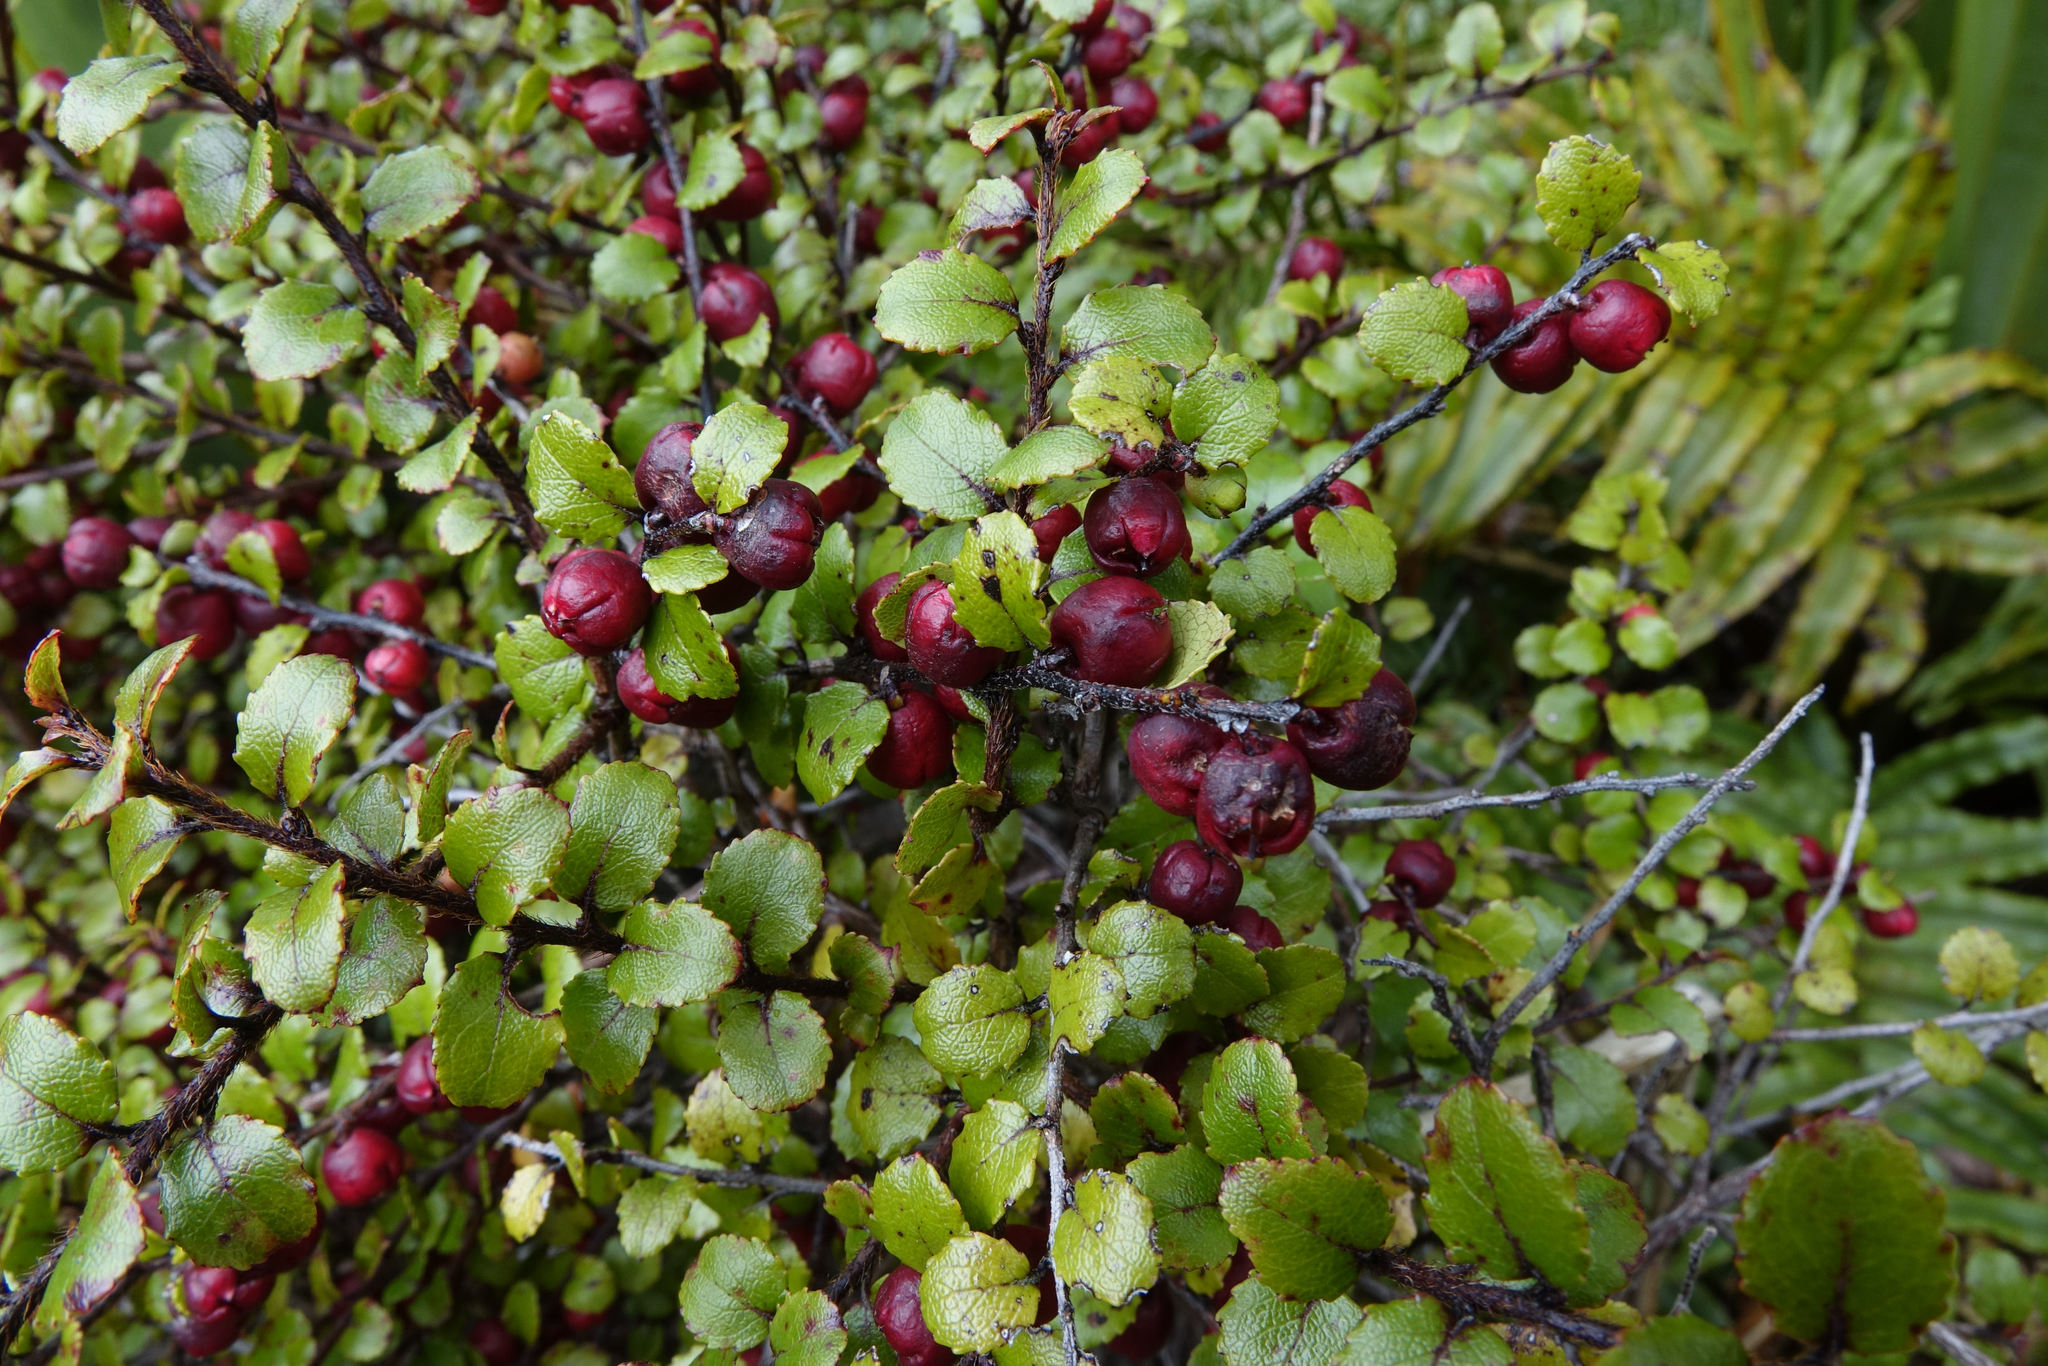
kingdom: Plantae
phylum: Tracheophyta
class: Magnoliopsida
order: Ericales
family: Ericaceae
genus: Gaultheria
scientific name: Gaultheria antipoda
